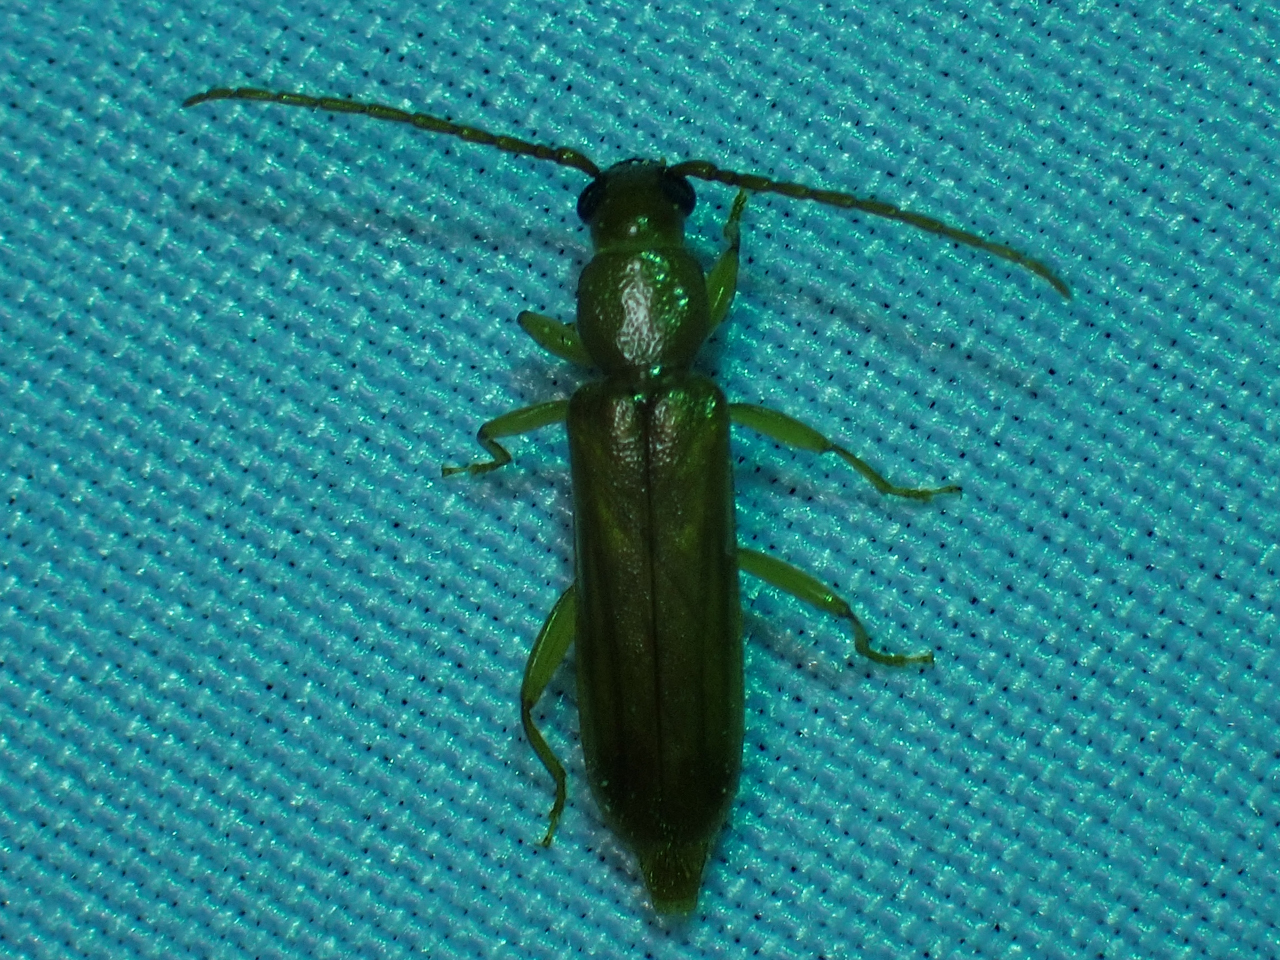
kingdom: Animalia
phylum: Arthropoda
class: Insecta
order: Coleoptera
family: Cerambycidae
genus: Smodicum
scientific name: Smodicum cucujiforme
